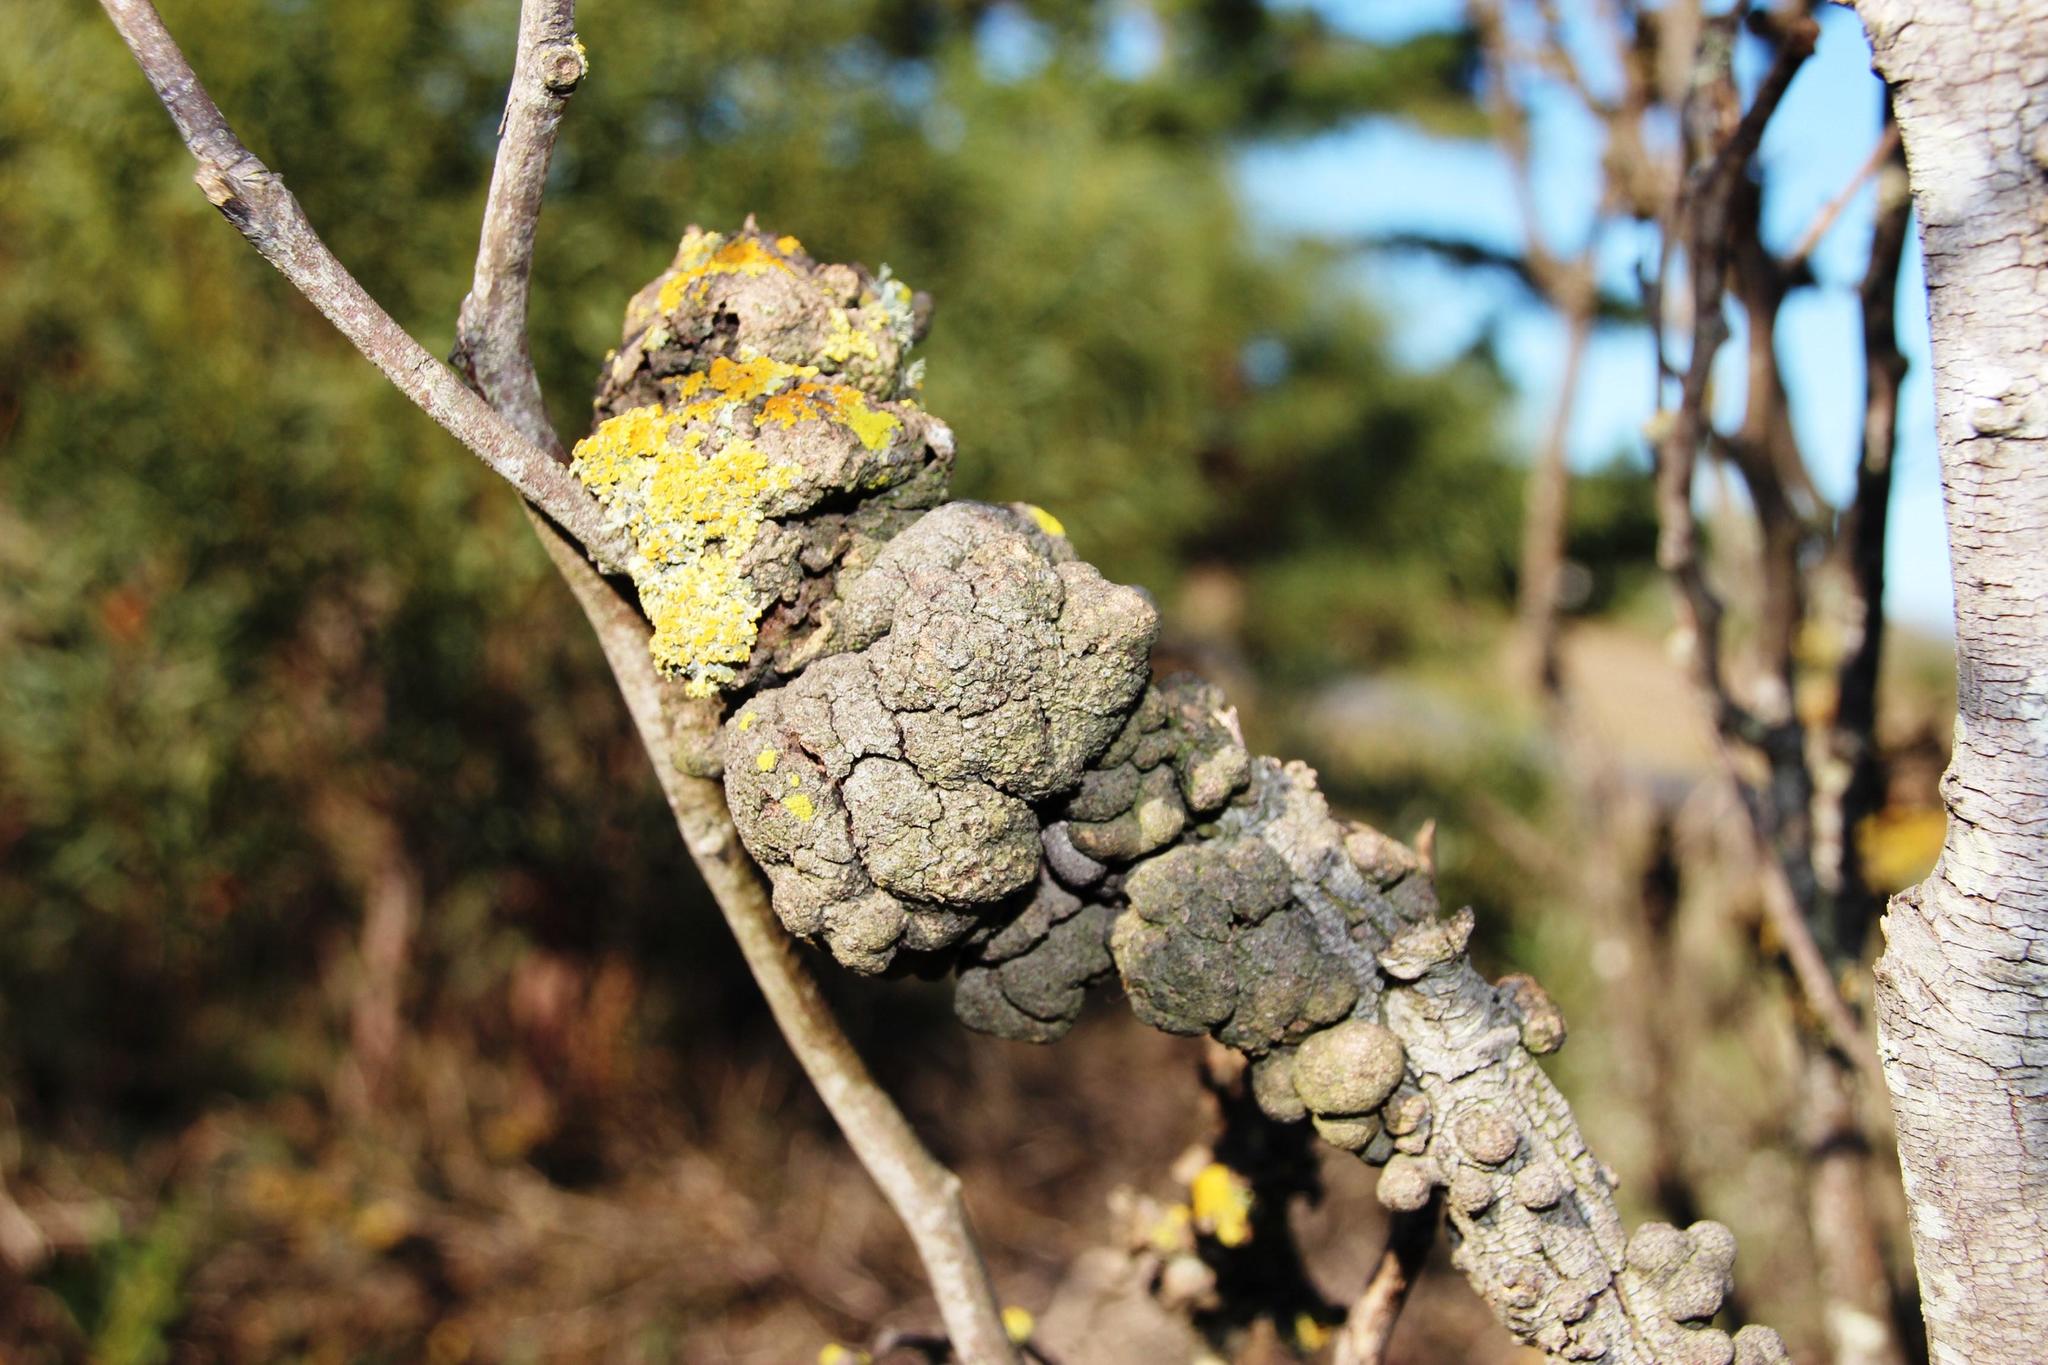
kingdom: Fungi
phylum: Basidiomycota
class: Pucciniomycetes
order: Pucciniales
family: Uromycladiaceae
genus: Uromycladium
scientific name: Uromycladium morrisii
